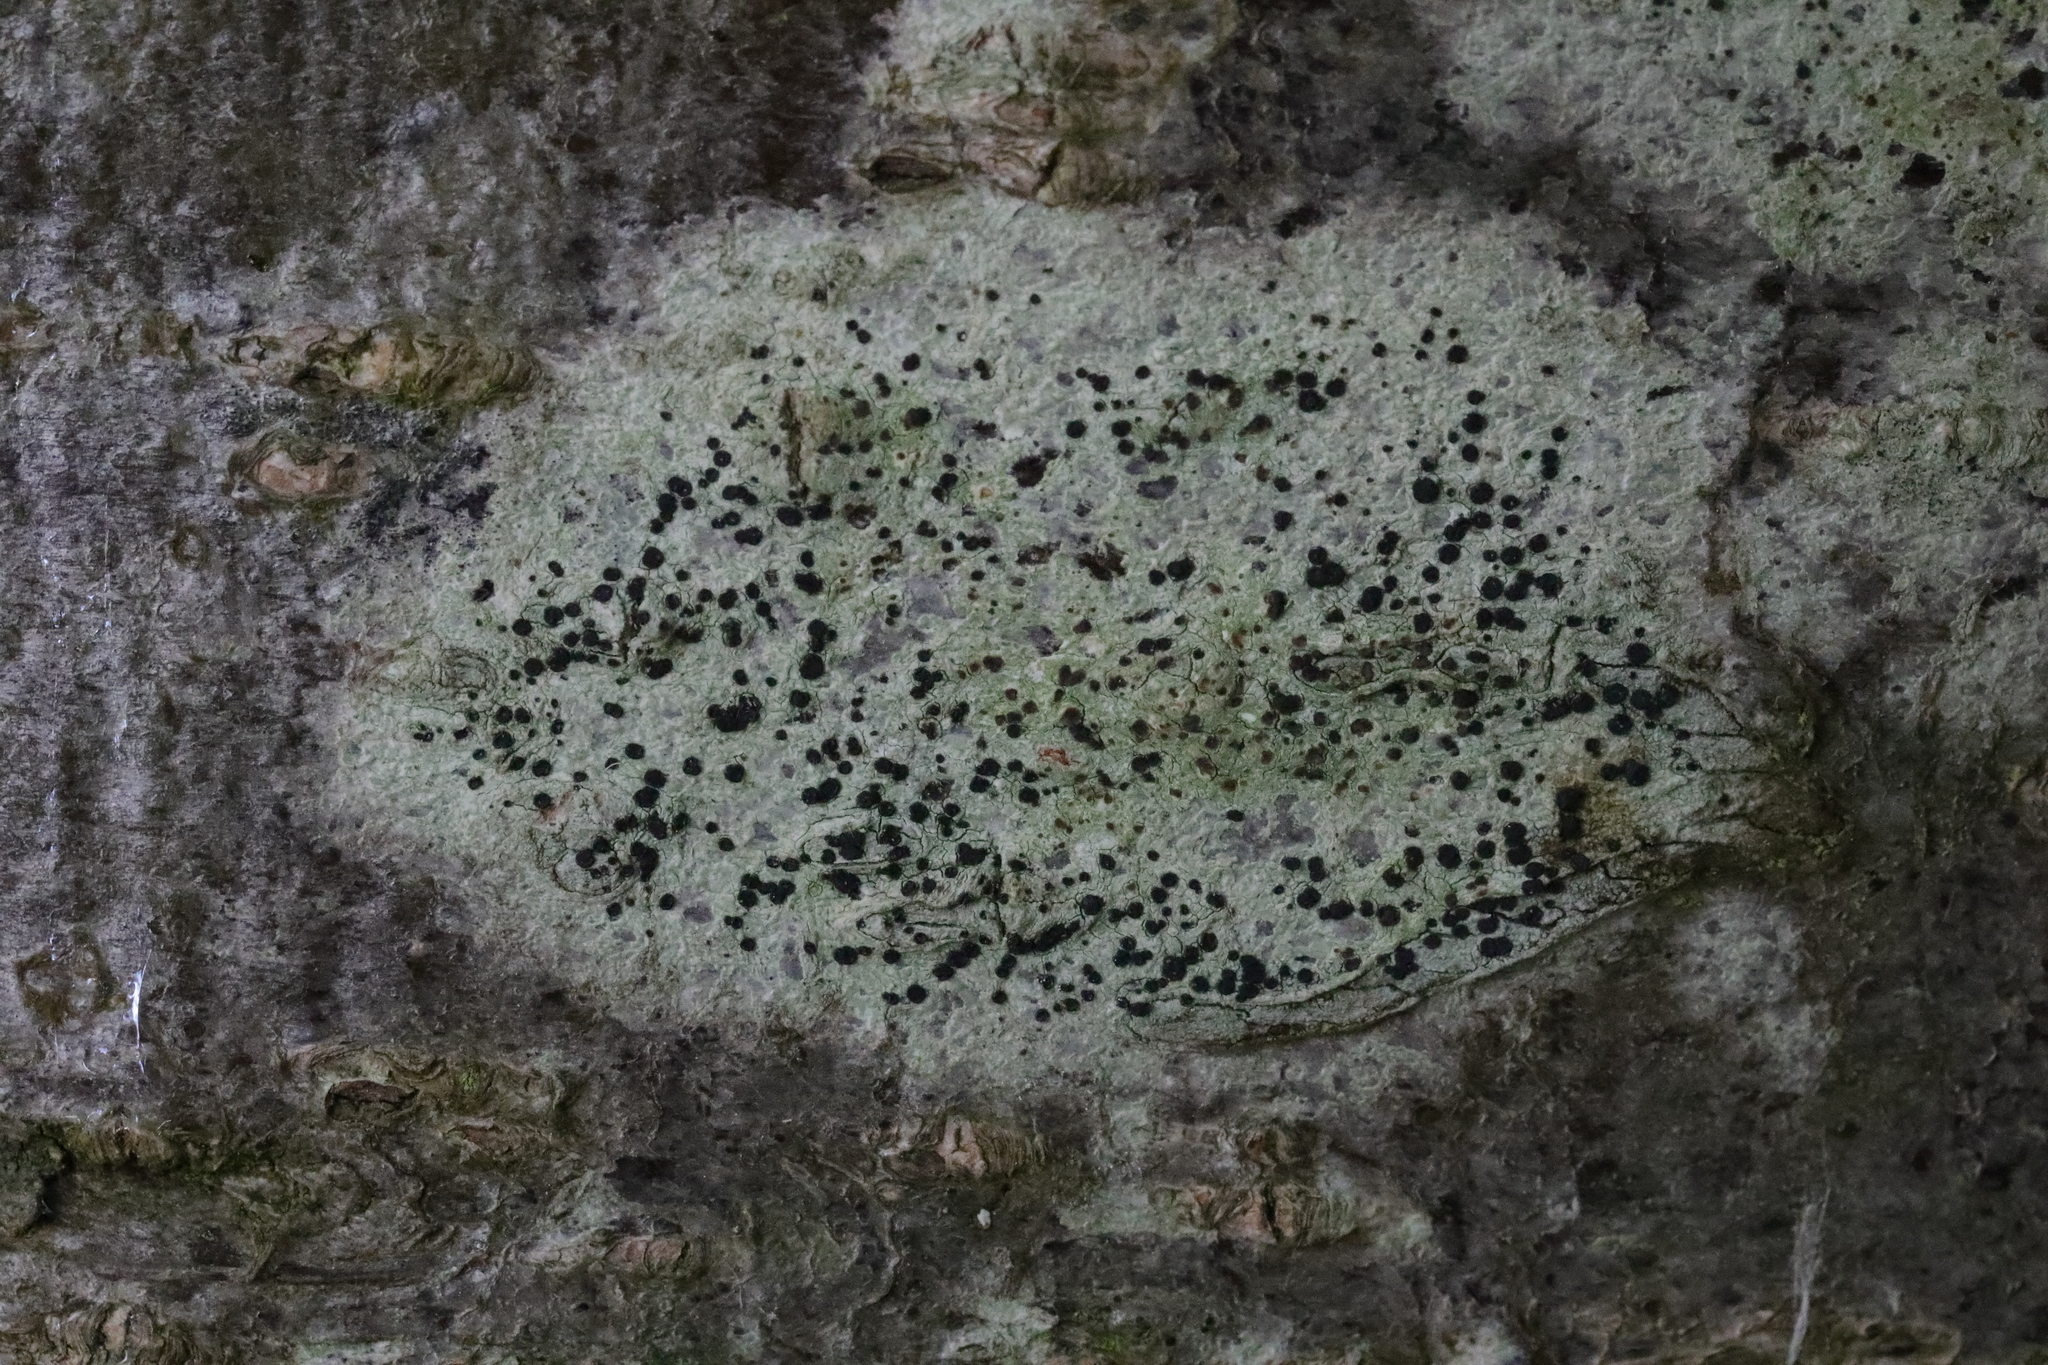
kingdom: Fungi
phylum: Ascomycota
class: Lecanoromycetes
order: Lecanorales
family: Lecanoraceae
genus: Lecidella
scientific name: Lecidella elaeochroma
